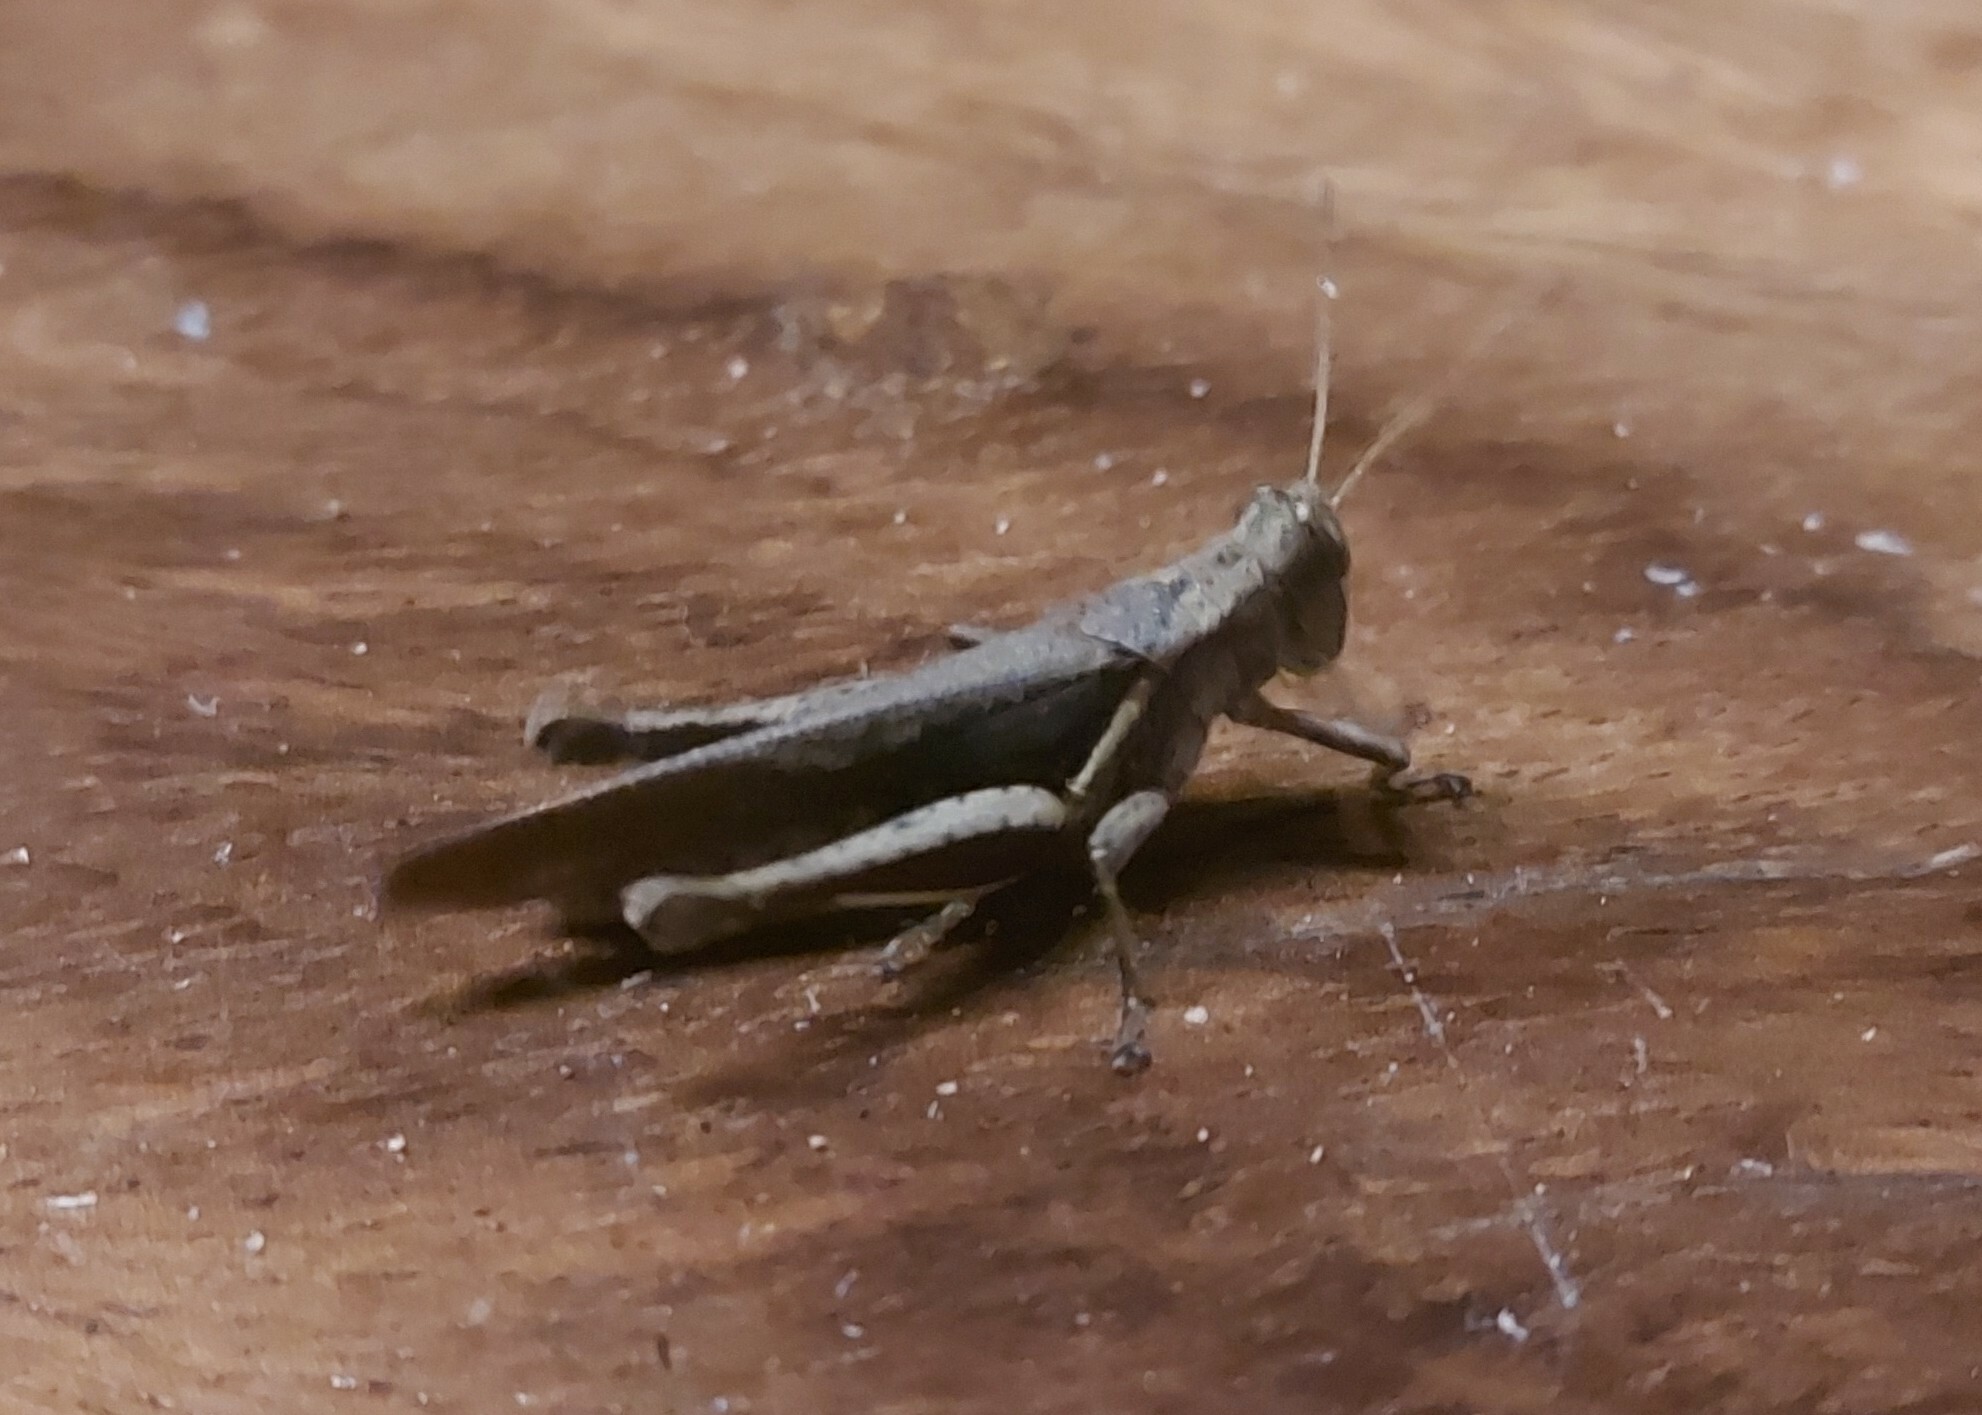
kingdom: Animalia
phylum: Arthropoda
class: Insecta
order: Orthoptera
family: Acrididae
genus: Abracris
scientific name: Abracris flavolineata
